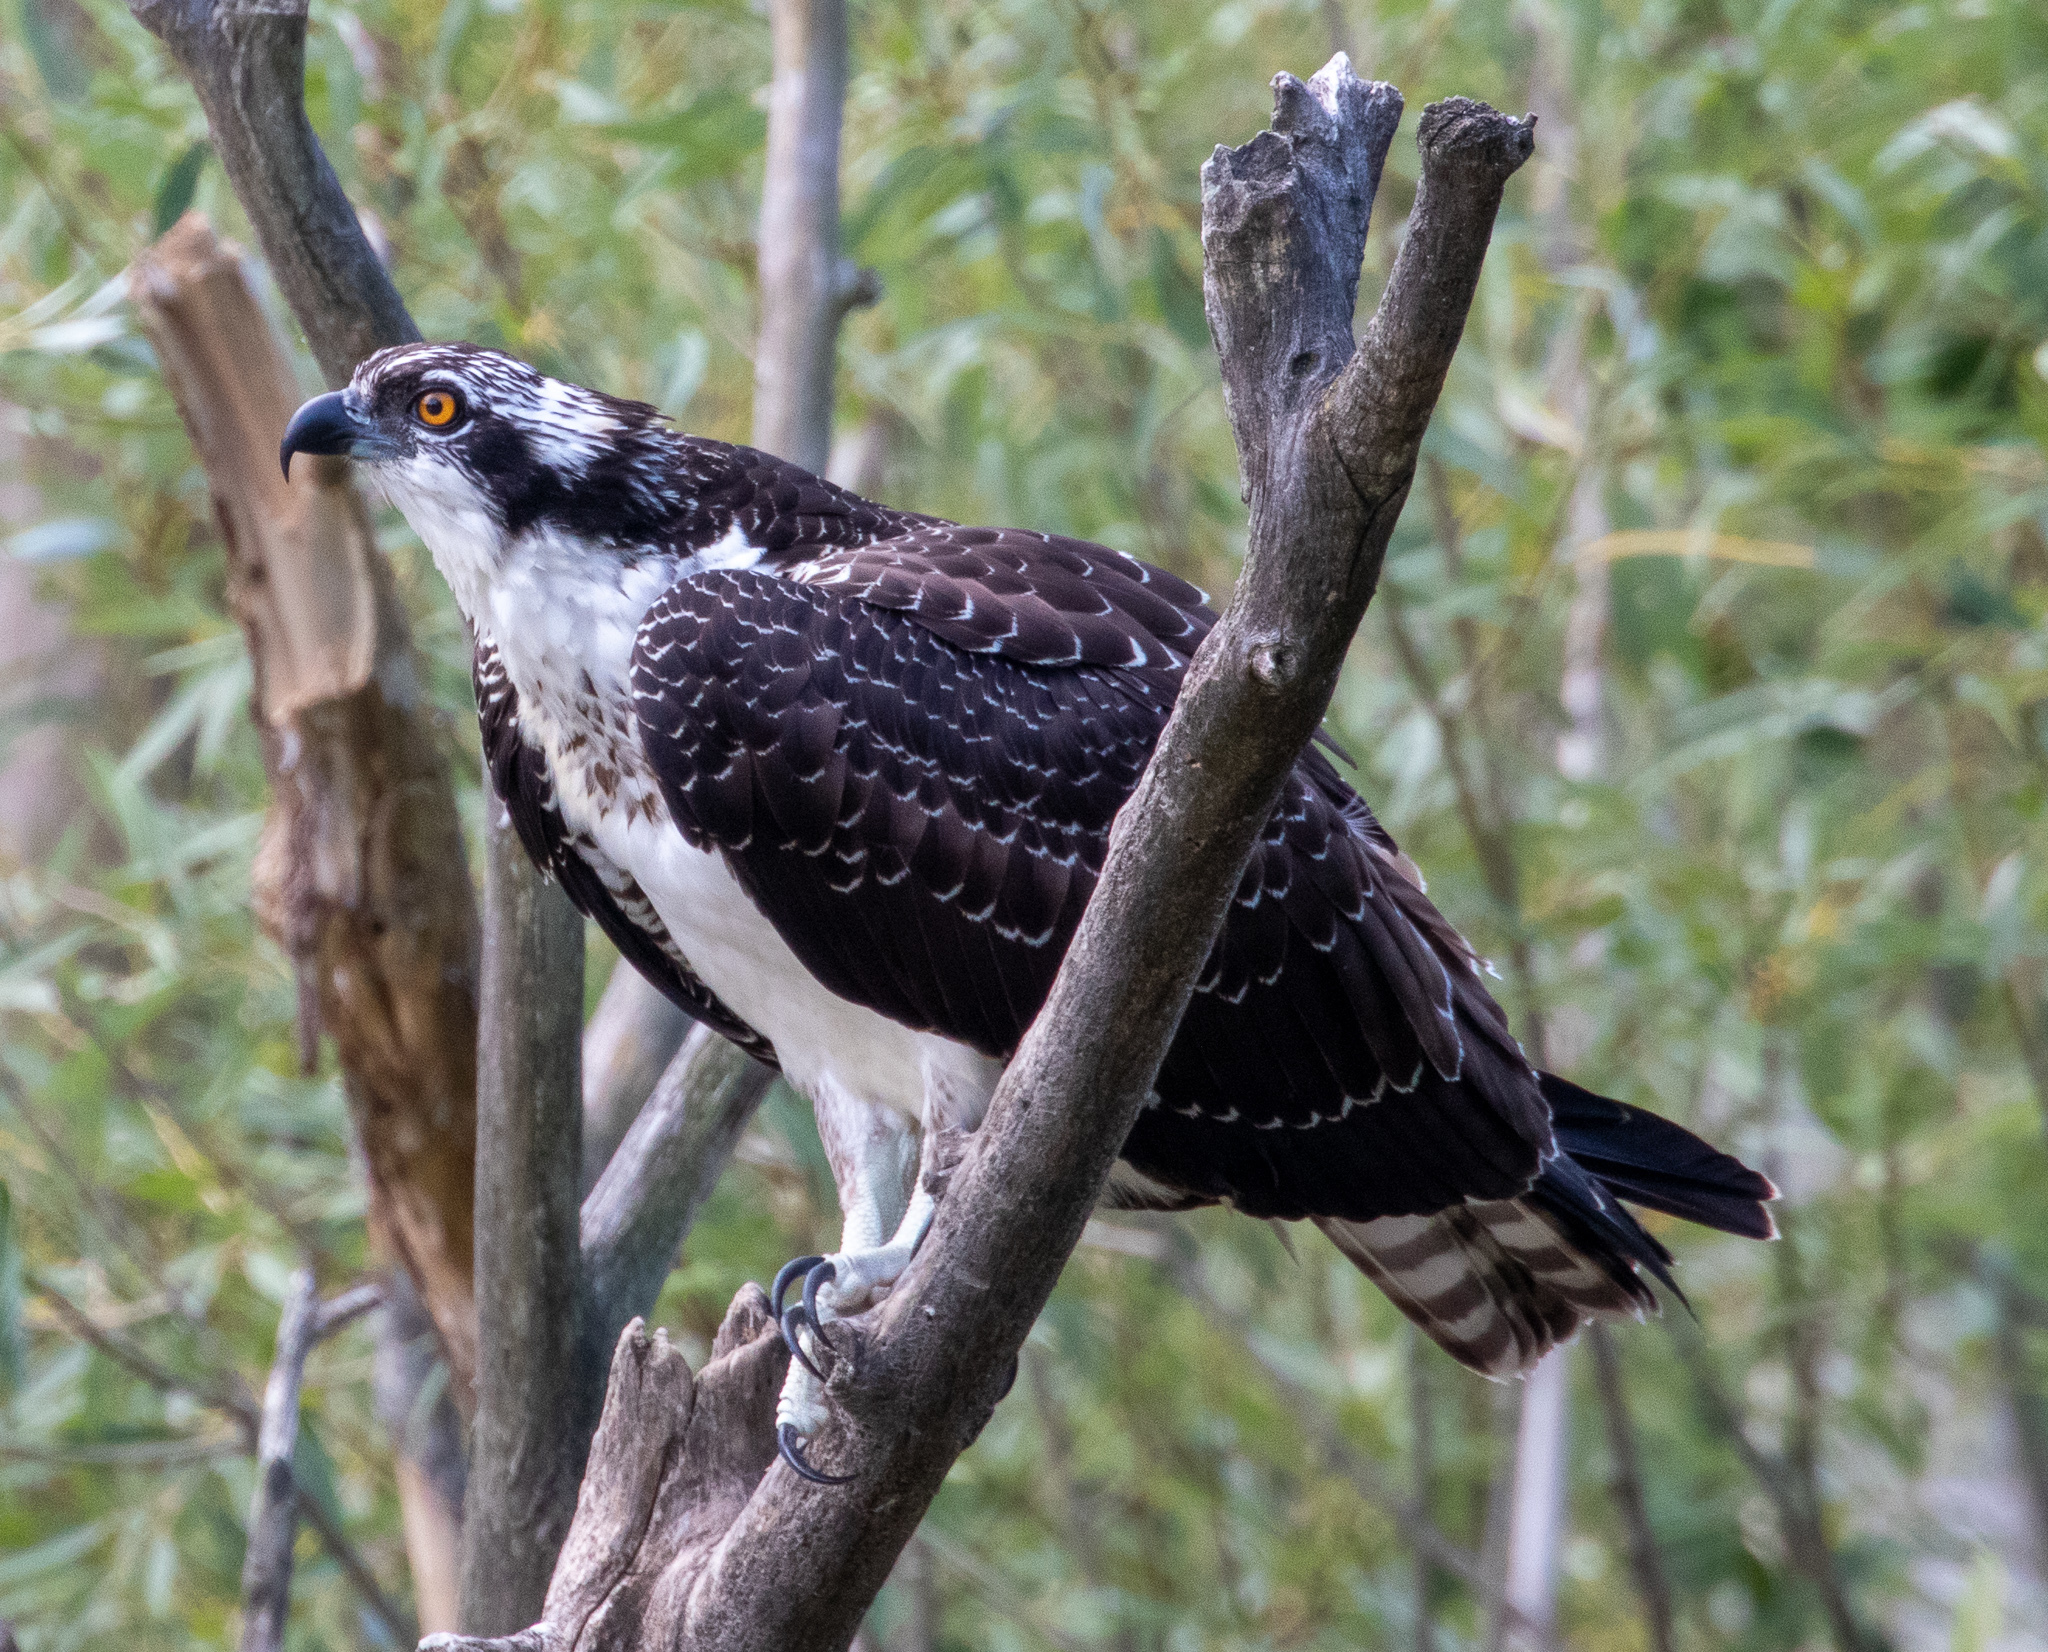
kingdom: Animalia
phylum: Chordata
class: Aves
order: Accipitriformes
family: Pandionidae
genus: Pandion
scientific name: Pandion haliaetus
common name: Osprey
